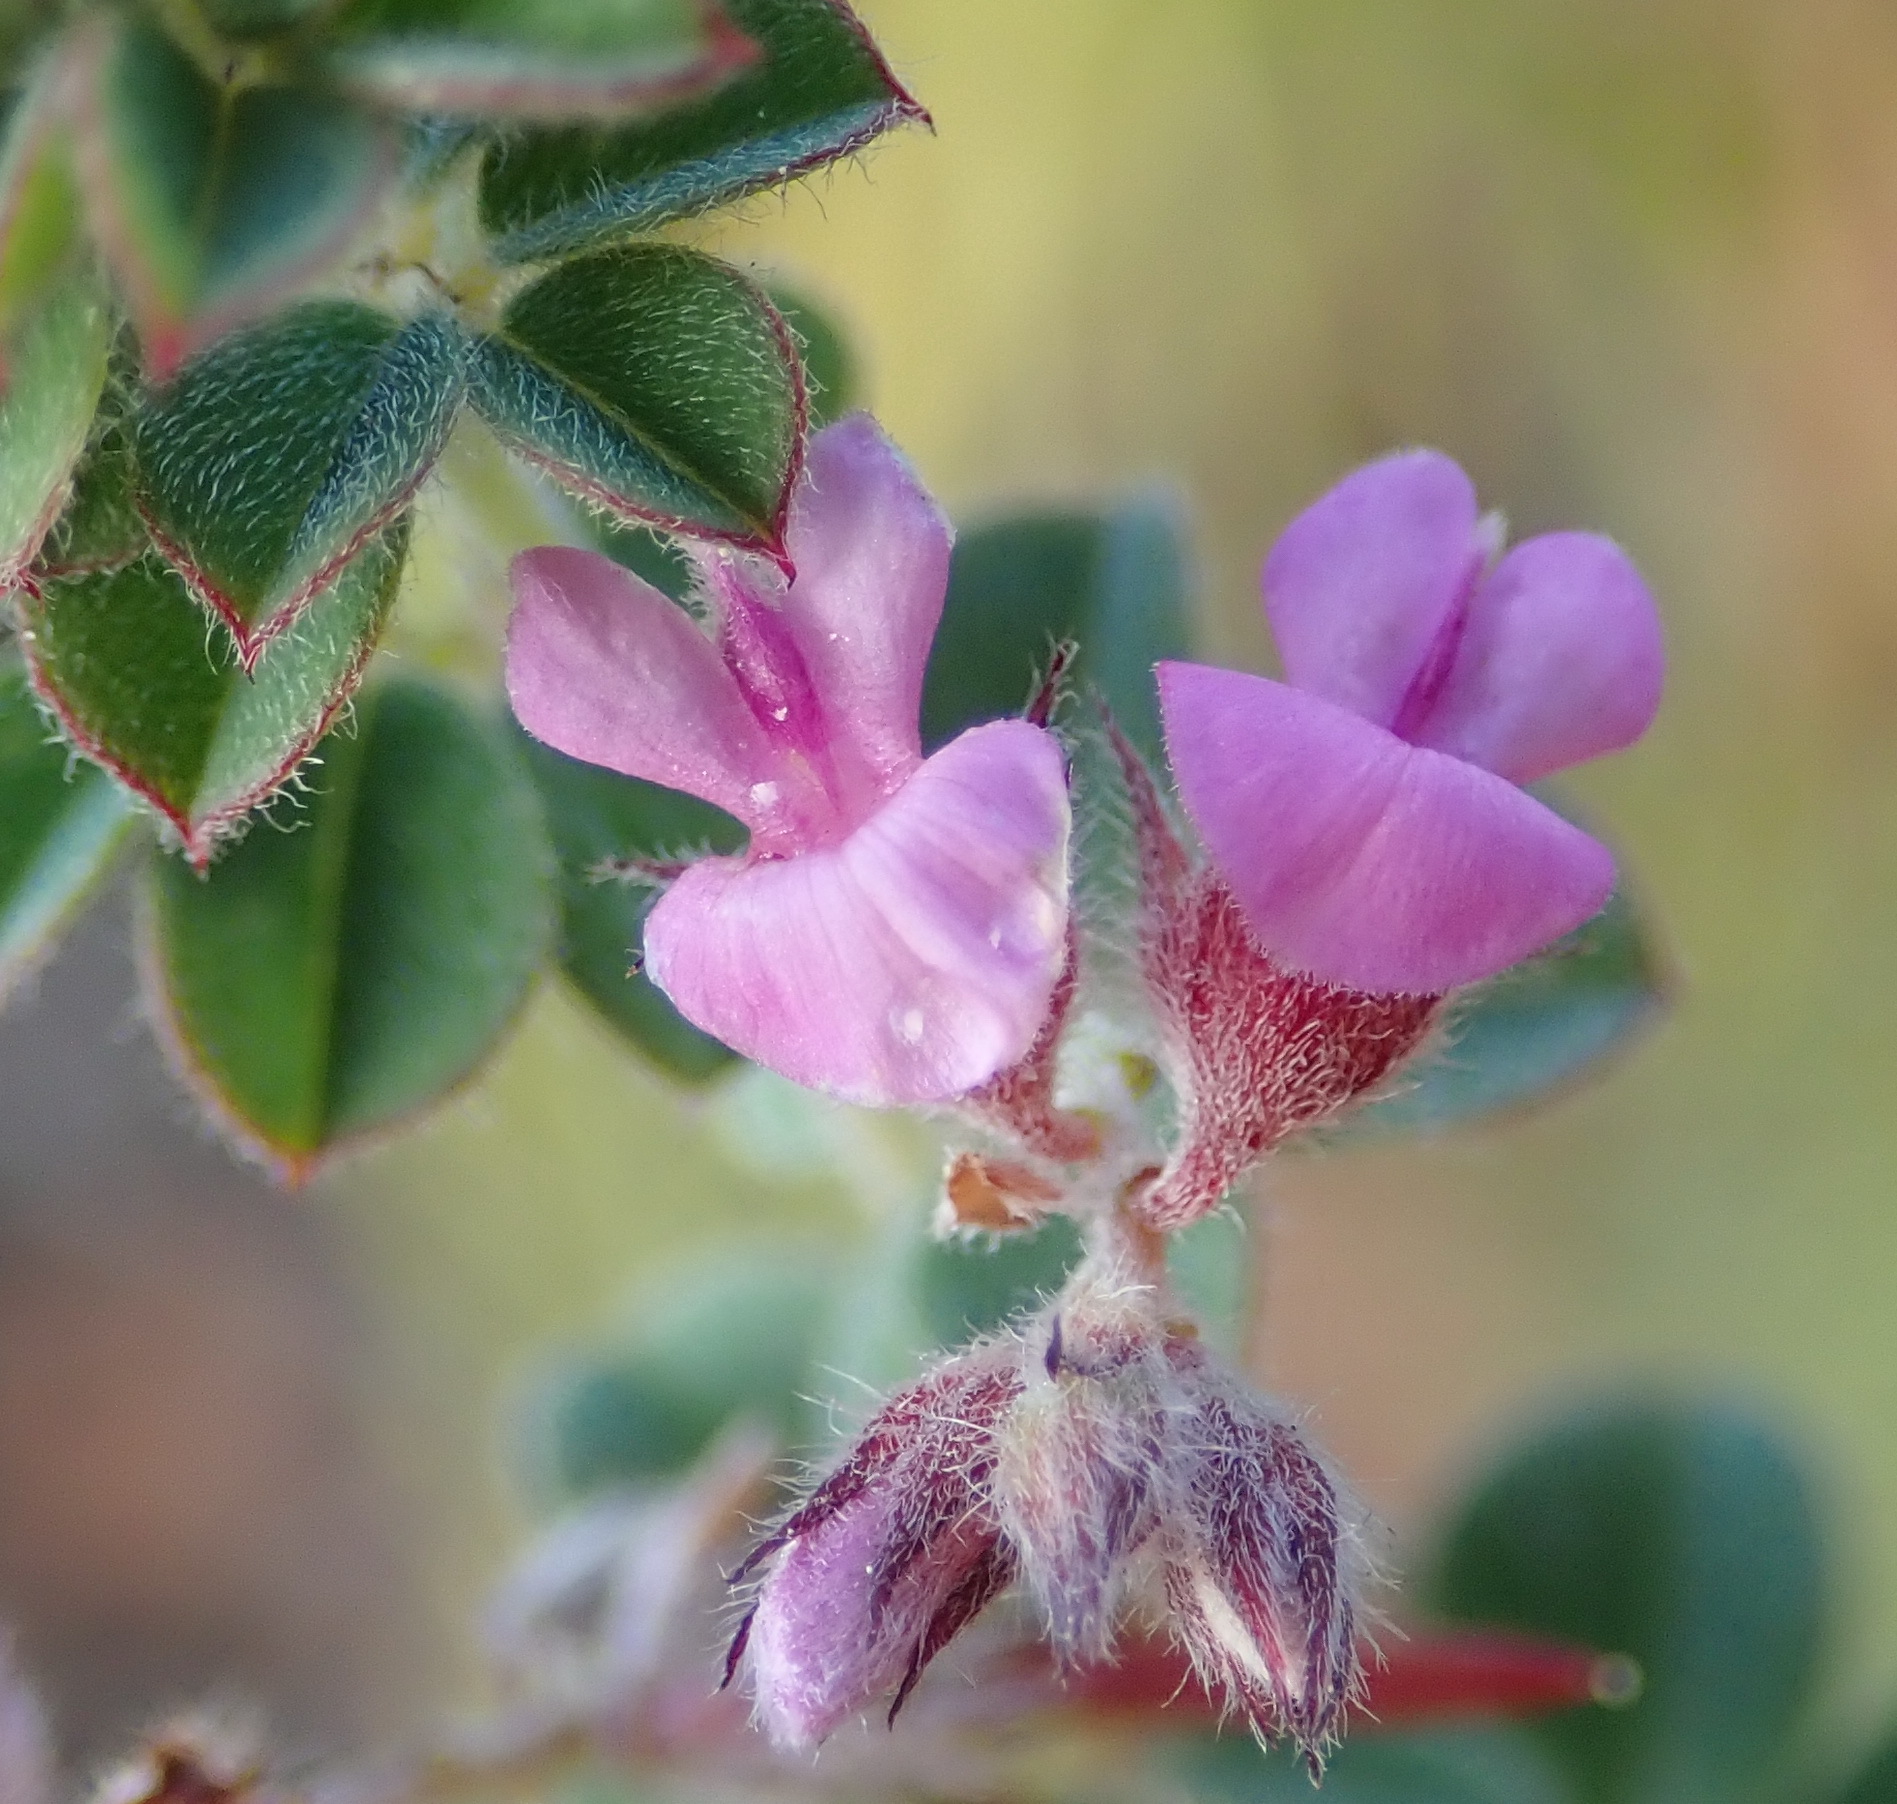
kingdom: Plantae
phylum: Tracheophyta
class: Magnoliopsida
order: Fabales
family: Fabaceae
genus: Indigofera
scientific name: Indigofera alopecuroides
